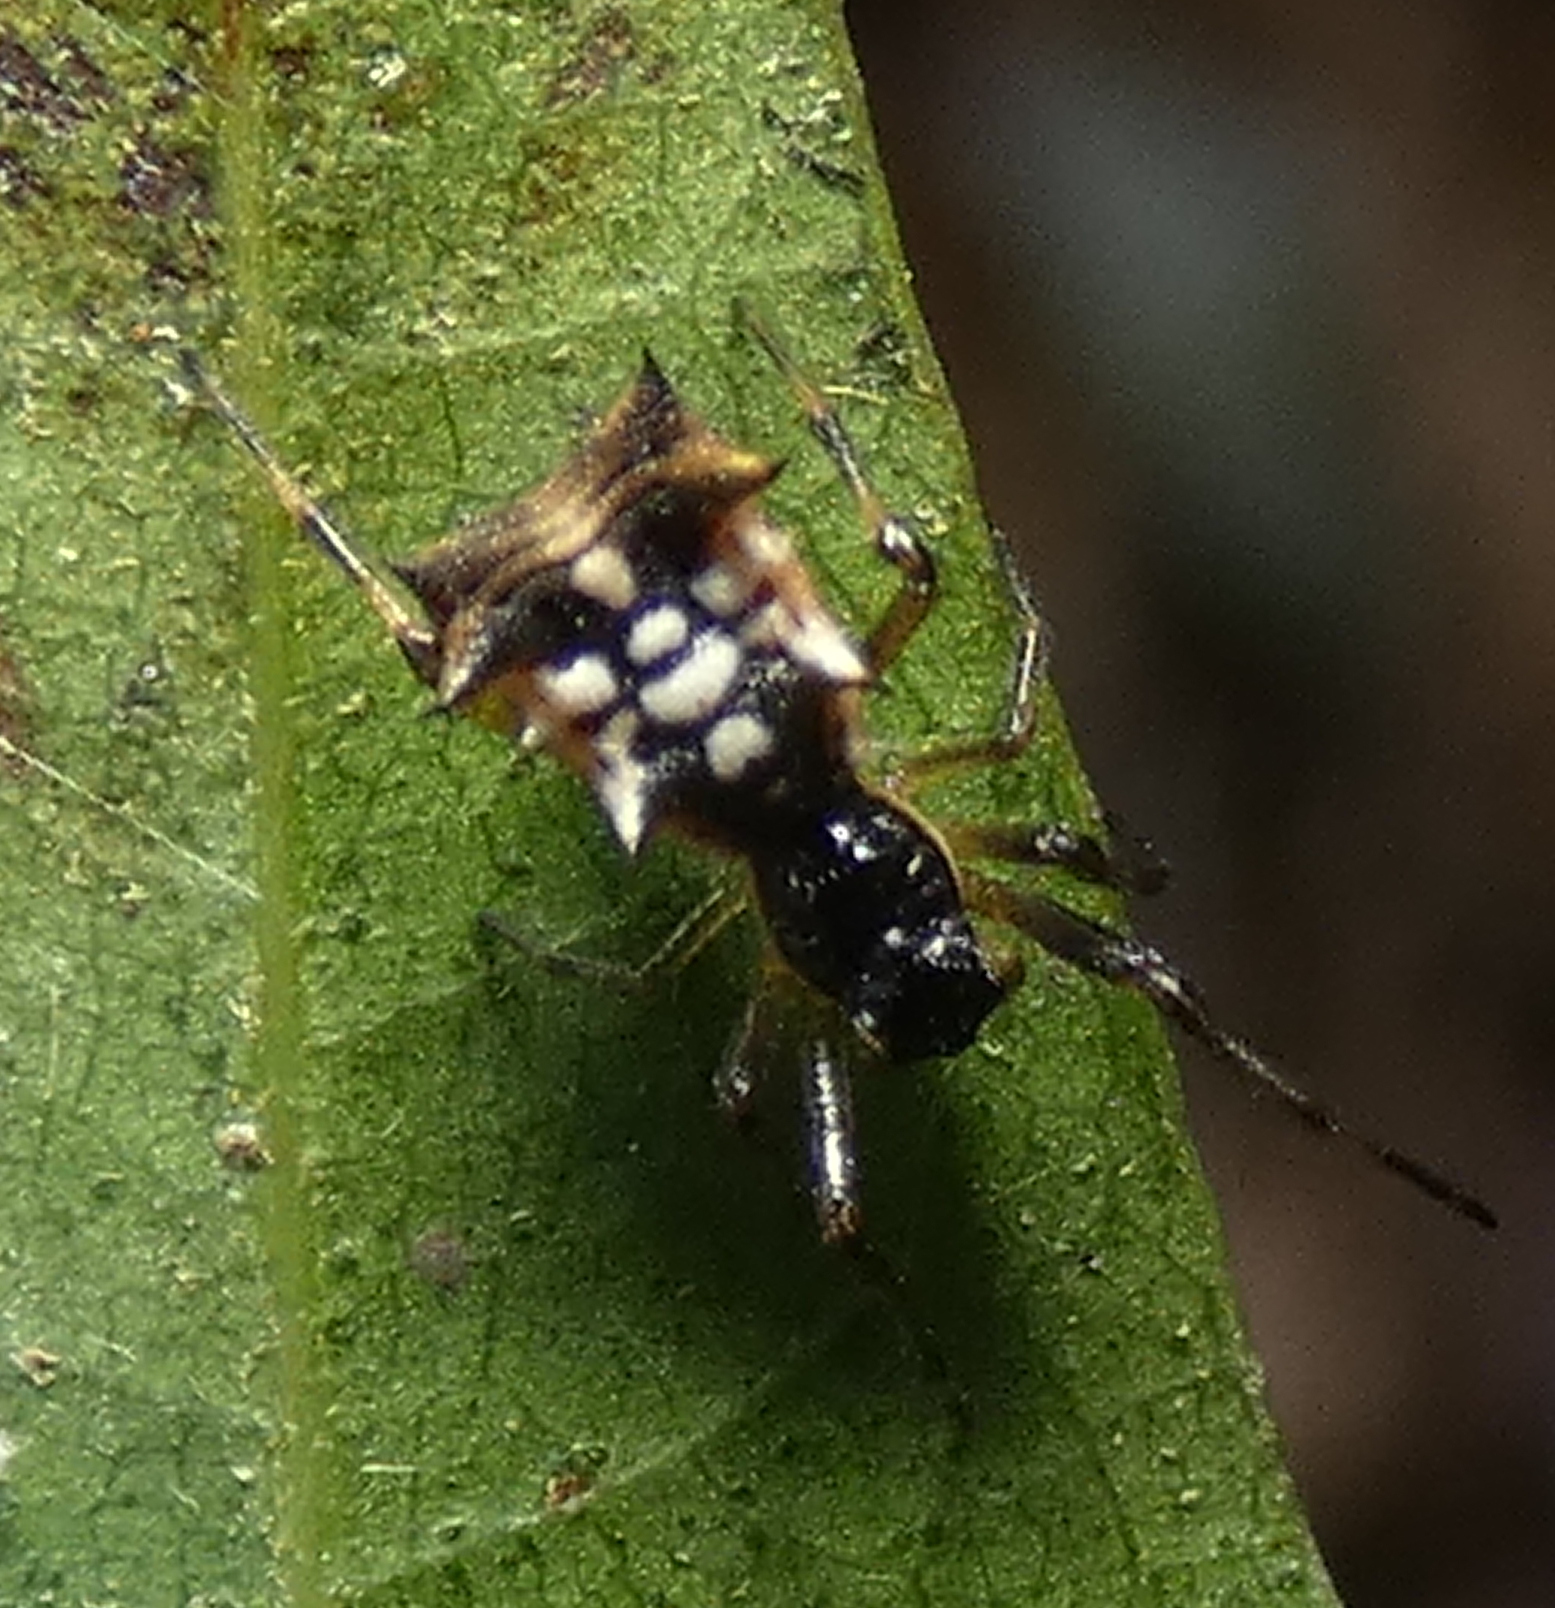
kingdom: Animalia
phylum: Arthropoda
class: Arachnida
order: Araneae
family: Araneidae
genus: Micrathena
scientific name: Micrathena picta
